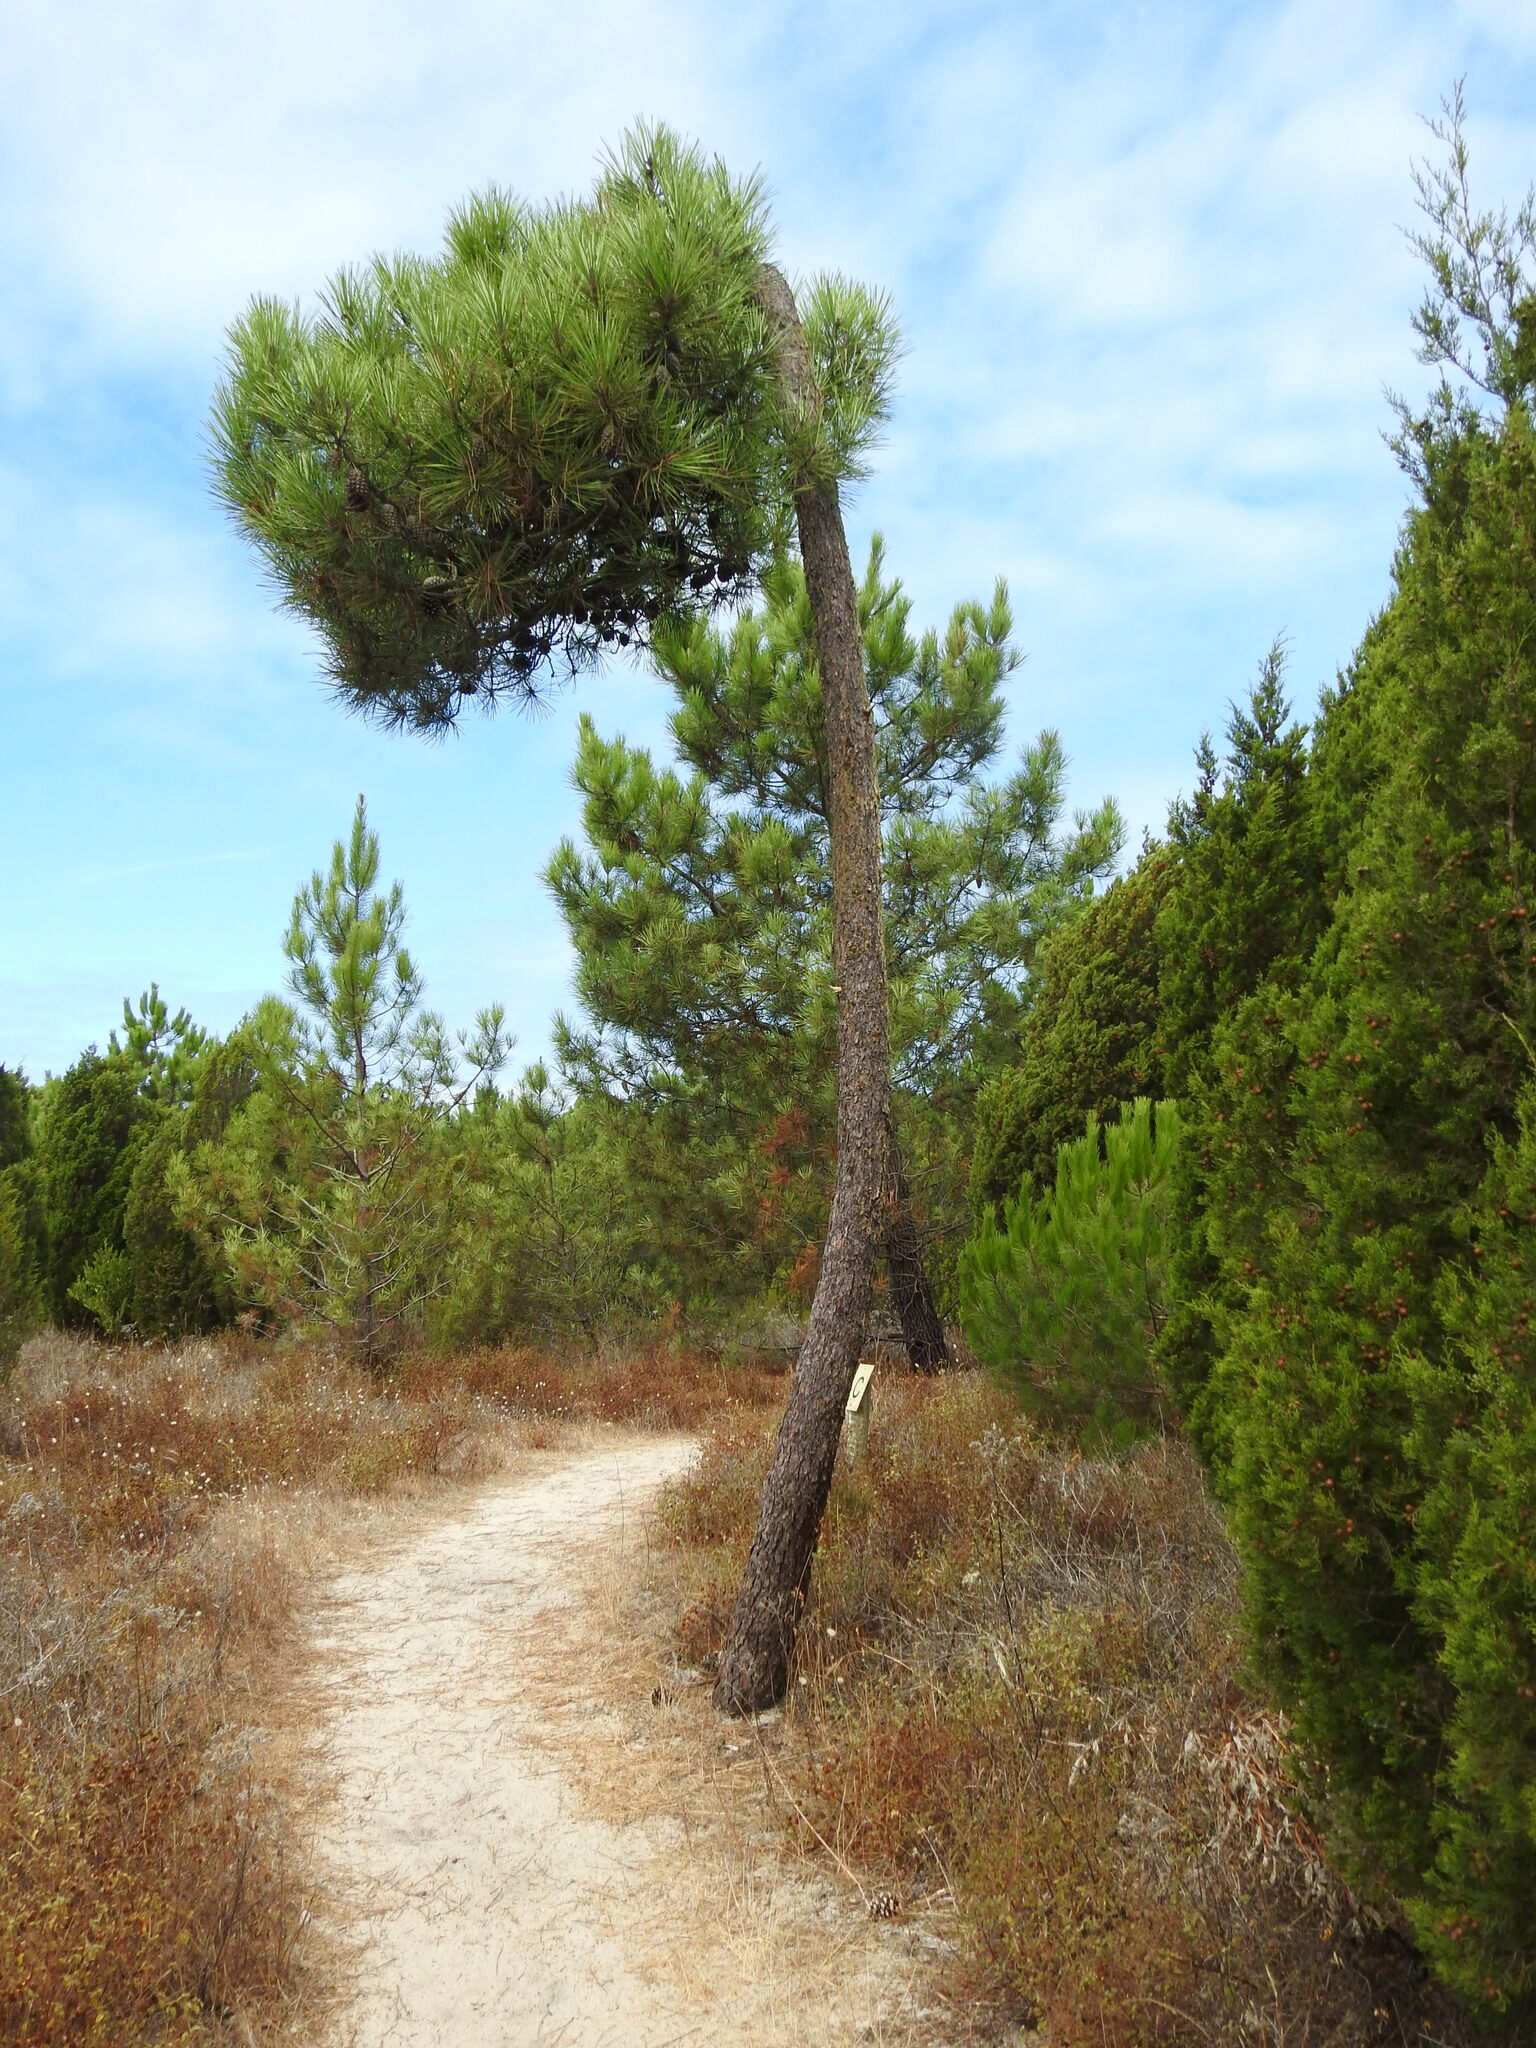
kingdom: Plantae
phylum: Tracheophyta
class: Pinopsida
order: Pinales
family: Pinaceae
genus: Pinus
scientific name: Pinus pinaster
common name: Maritime pine
